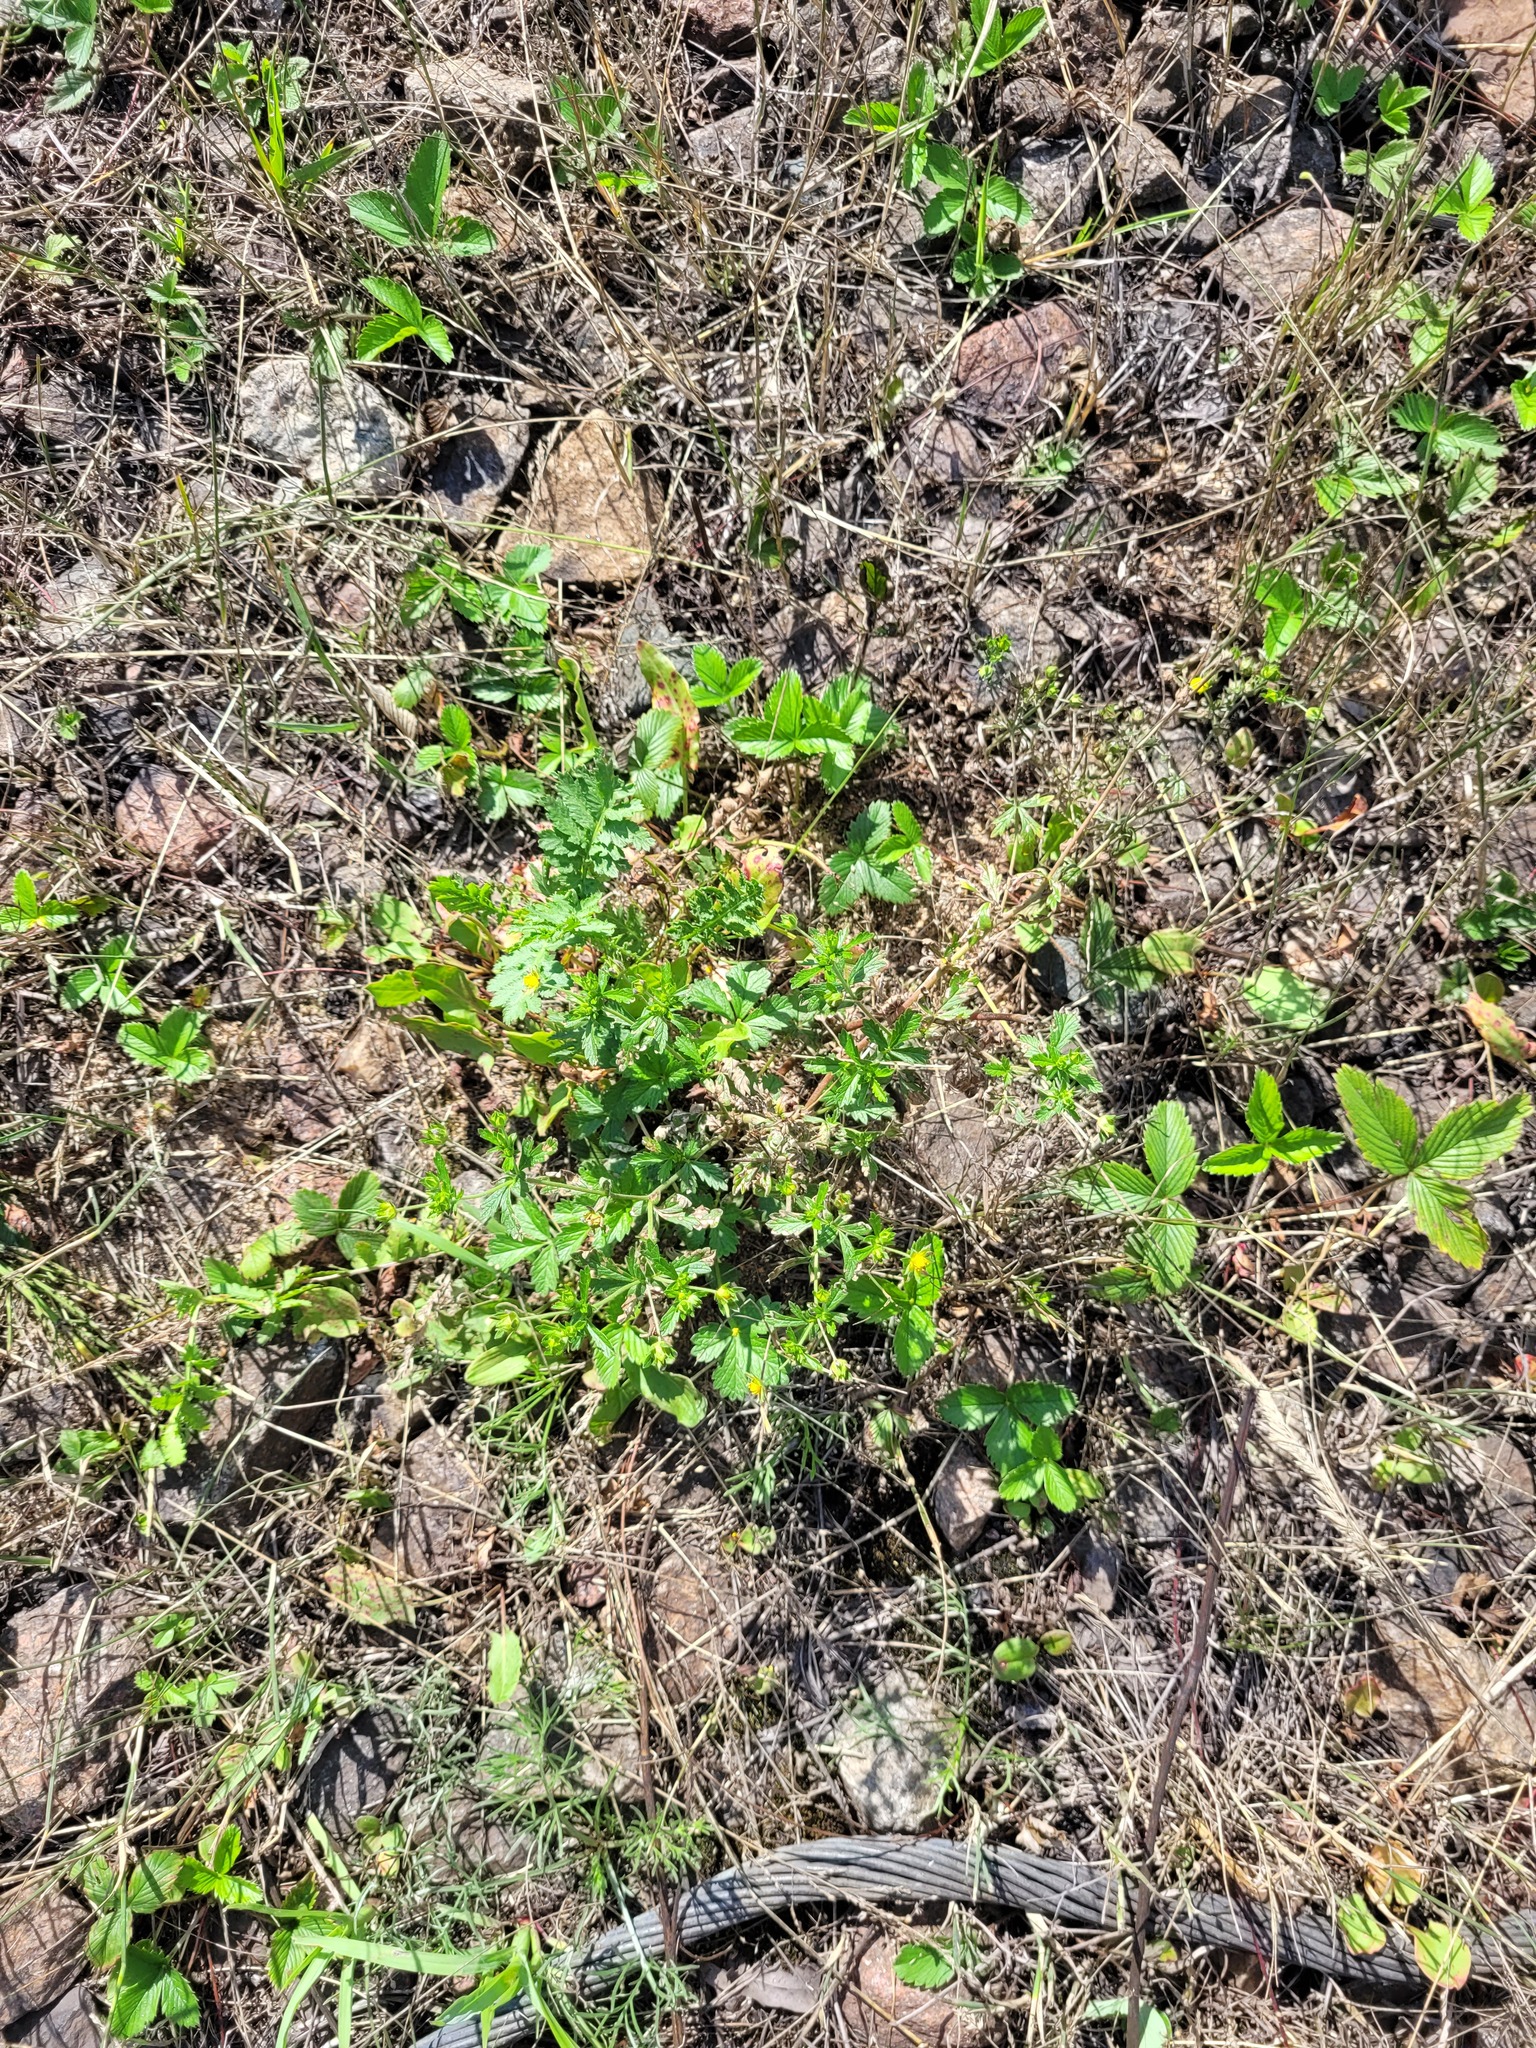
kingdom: Plantae
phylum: Tracheophyta
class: Magnoliopsida
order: Rosales
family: Rosaceae
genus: Potentilla
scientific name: Potentilla intermedia
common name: Downy cinquefoil
